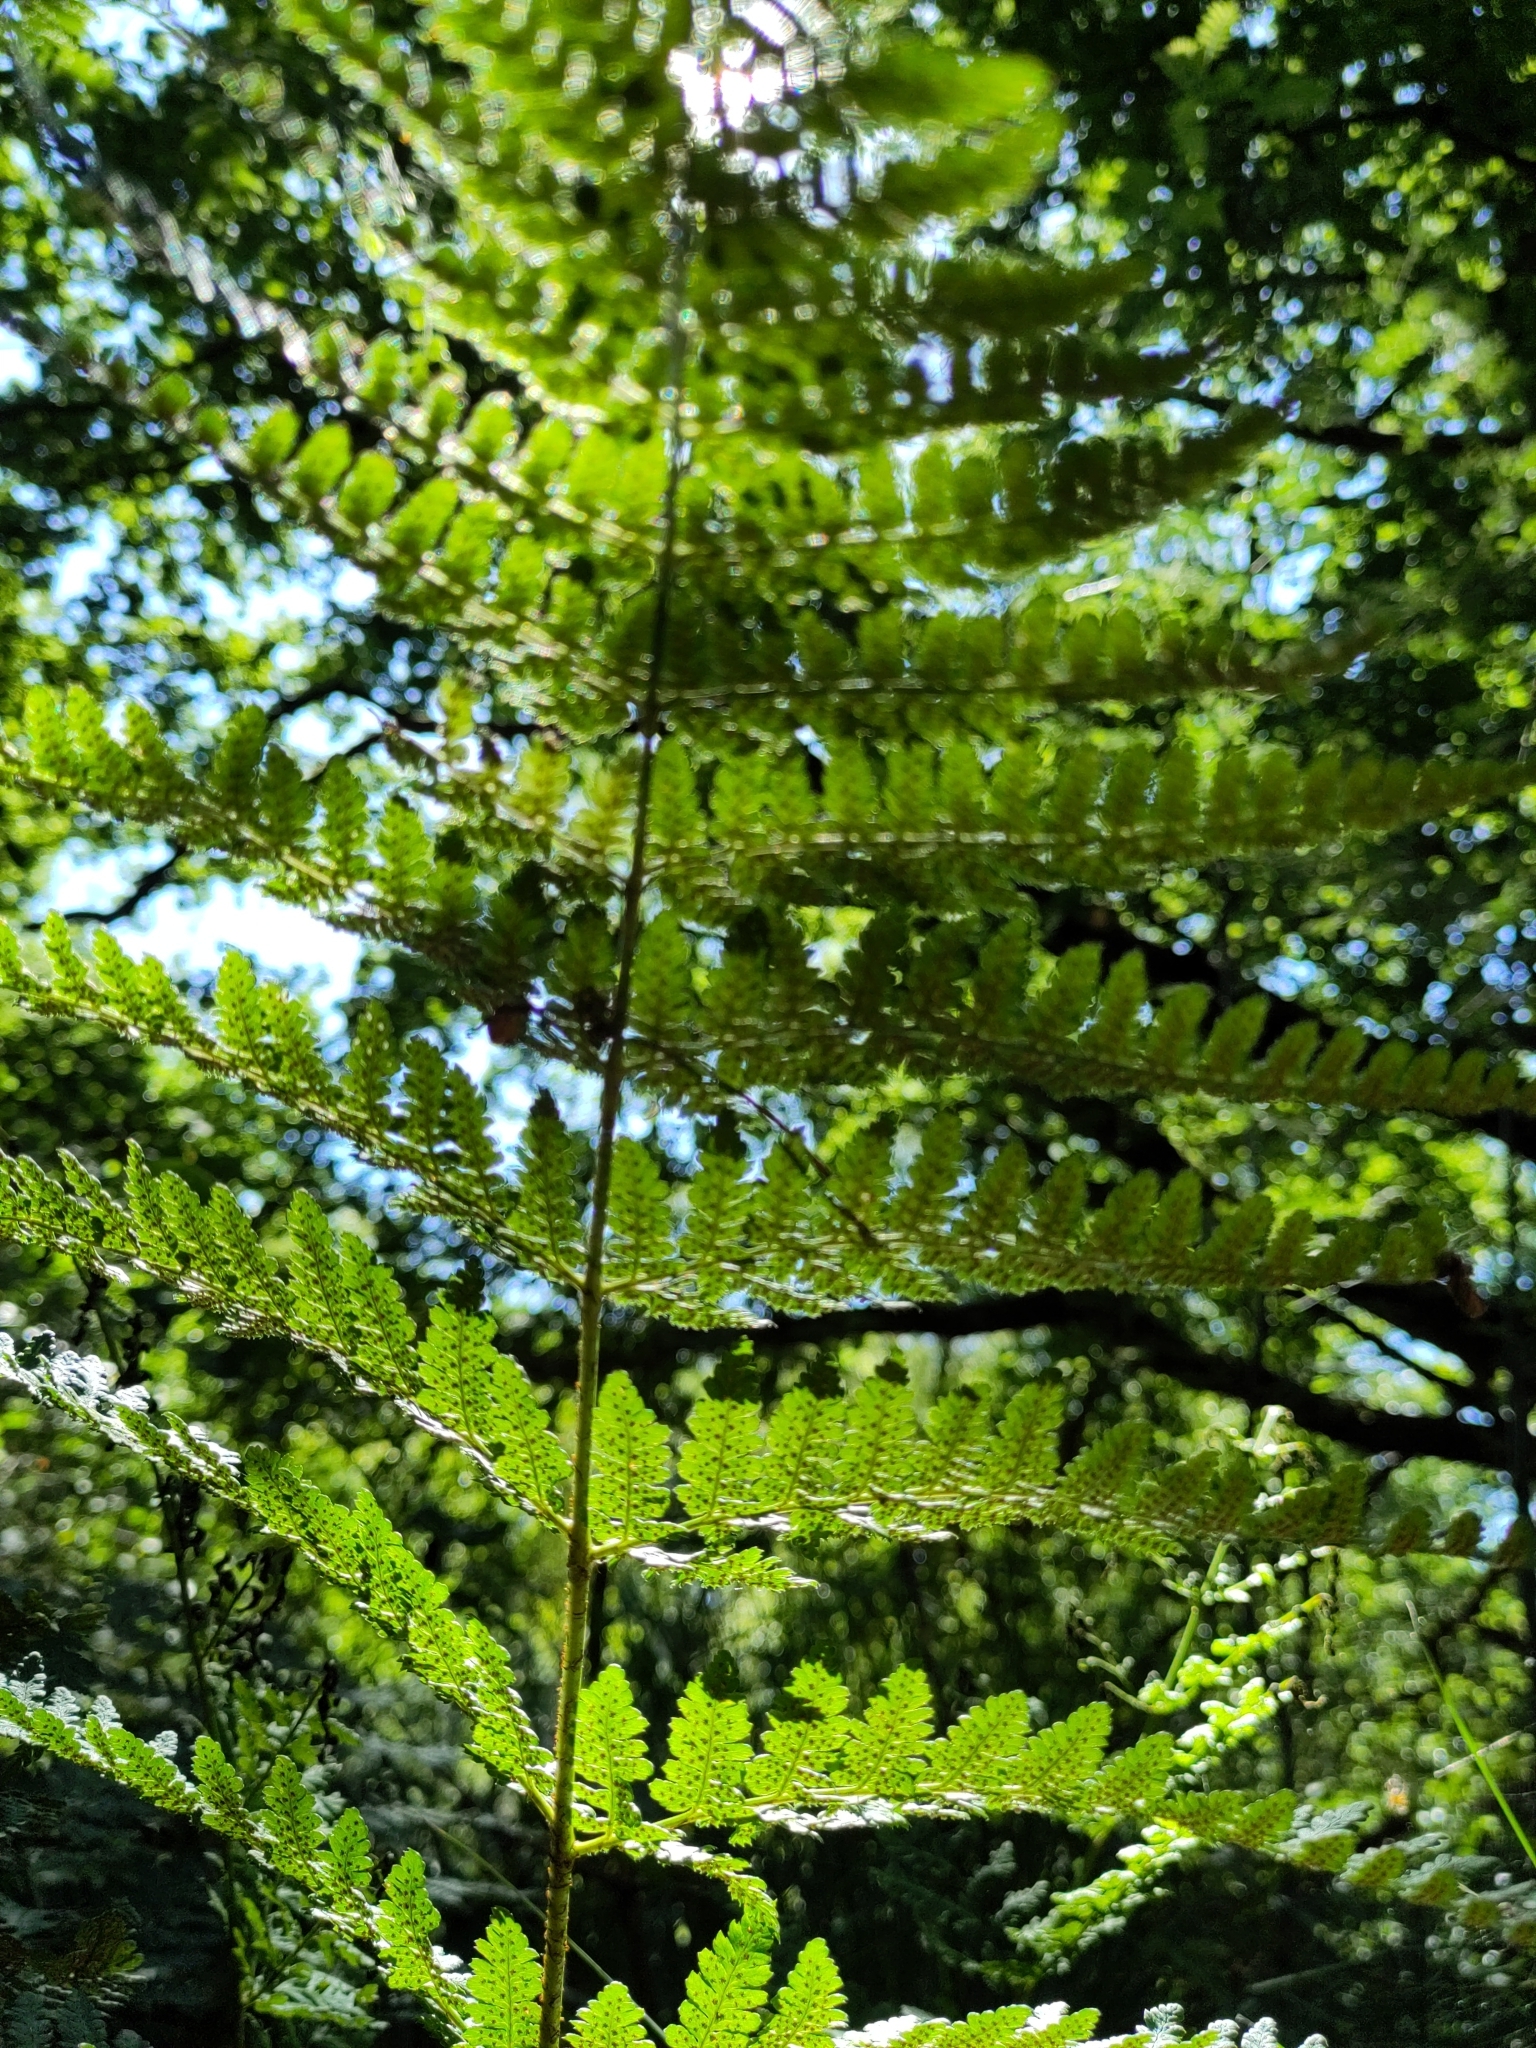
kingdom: Plantae
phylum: Tracheophyta
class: Polypodiopsida
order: Polypodiales
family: Dryopteridaceae
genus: Dryopteris
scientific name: Dryopteris dilatata
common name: Broad buckler-fern
